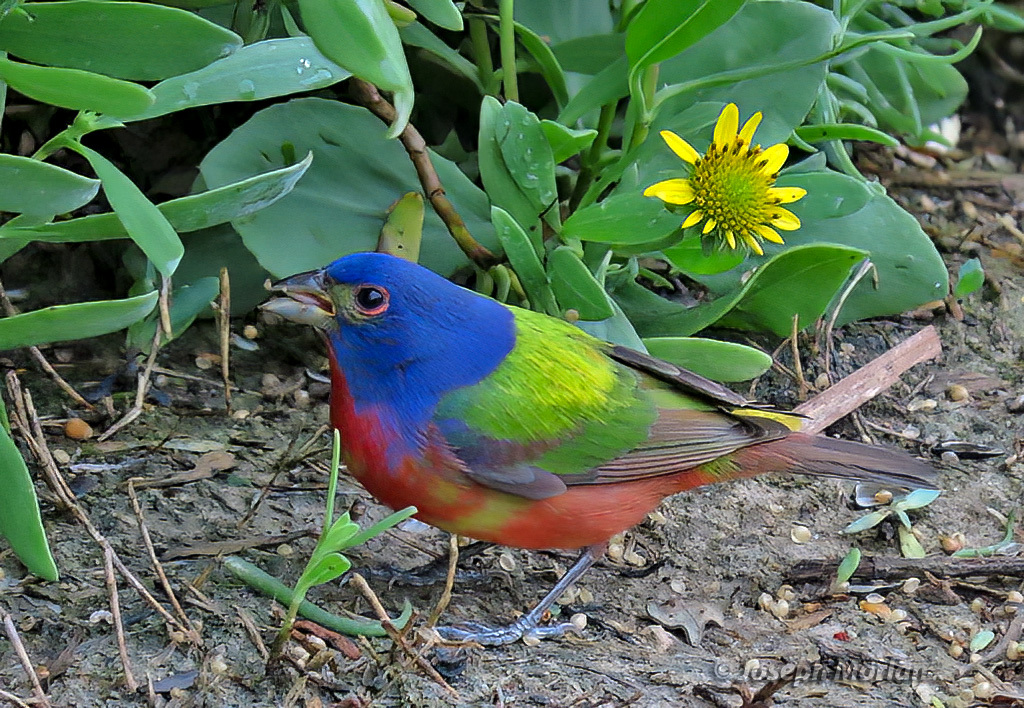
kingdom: Animalia
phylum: Chordata
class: Aves
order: Passeriformes
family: Cardinalidae
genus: Passerina
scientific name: Passerina ciris
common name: Painted bunting
